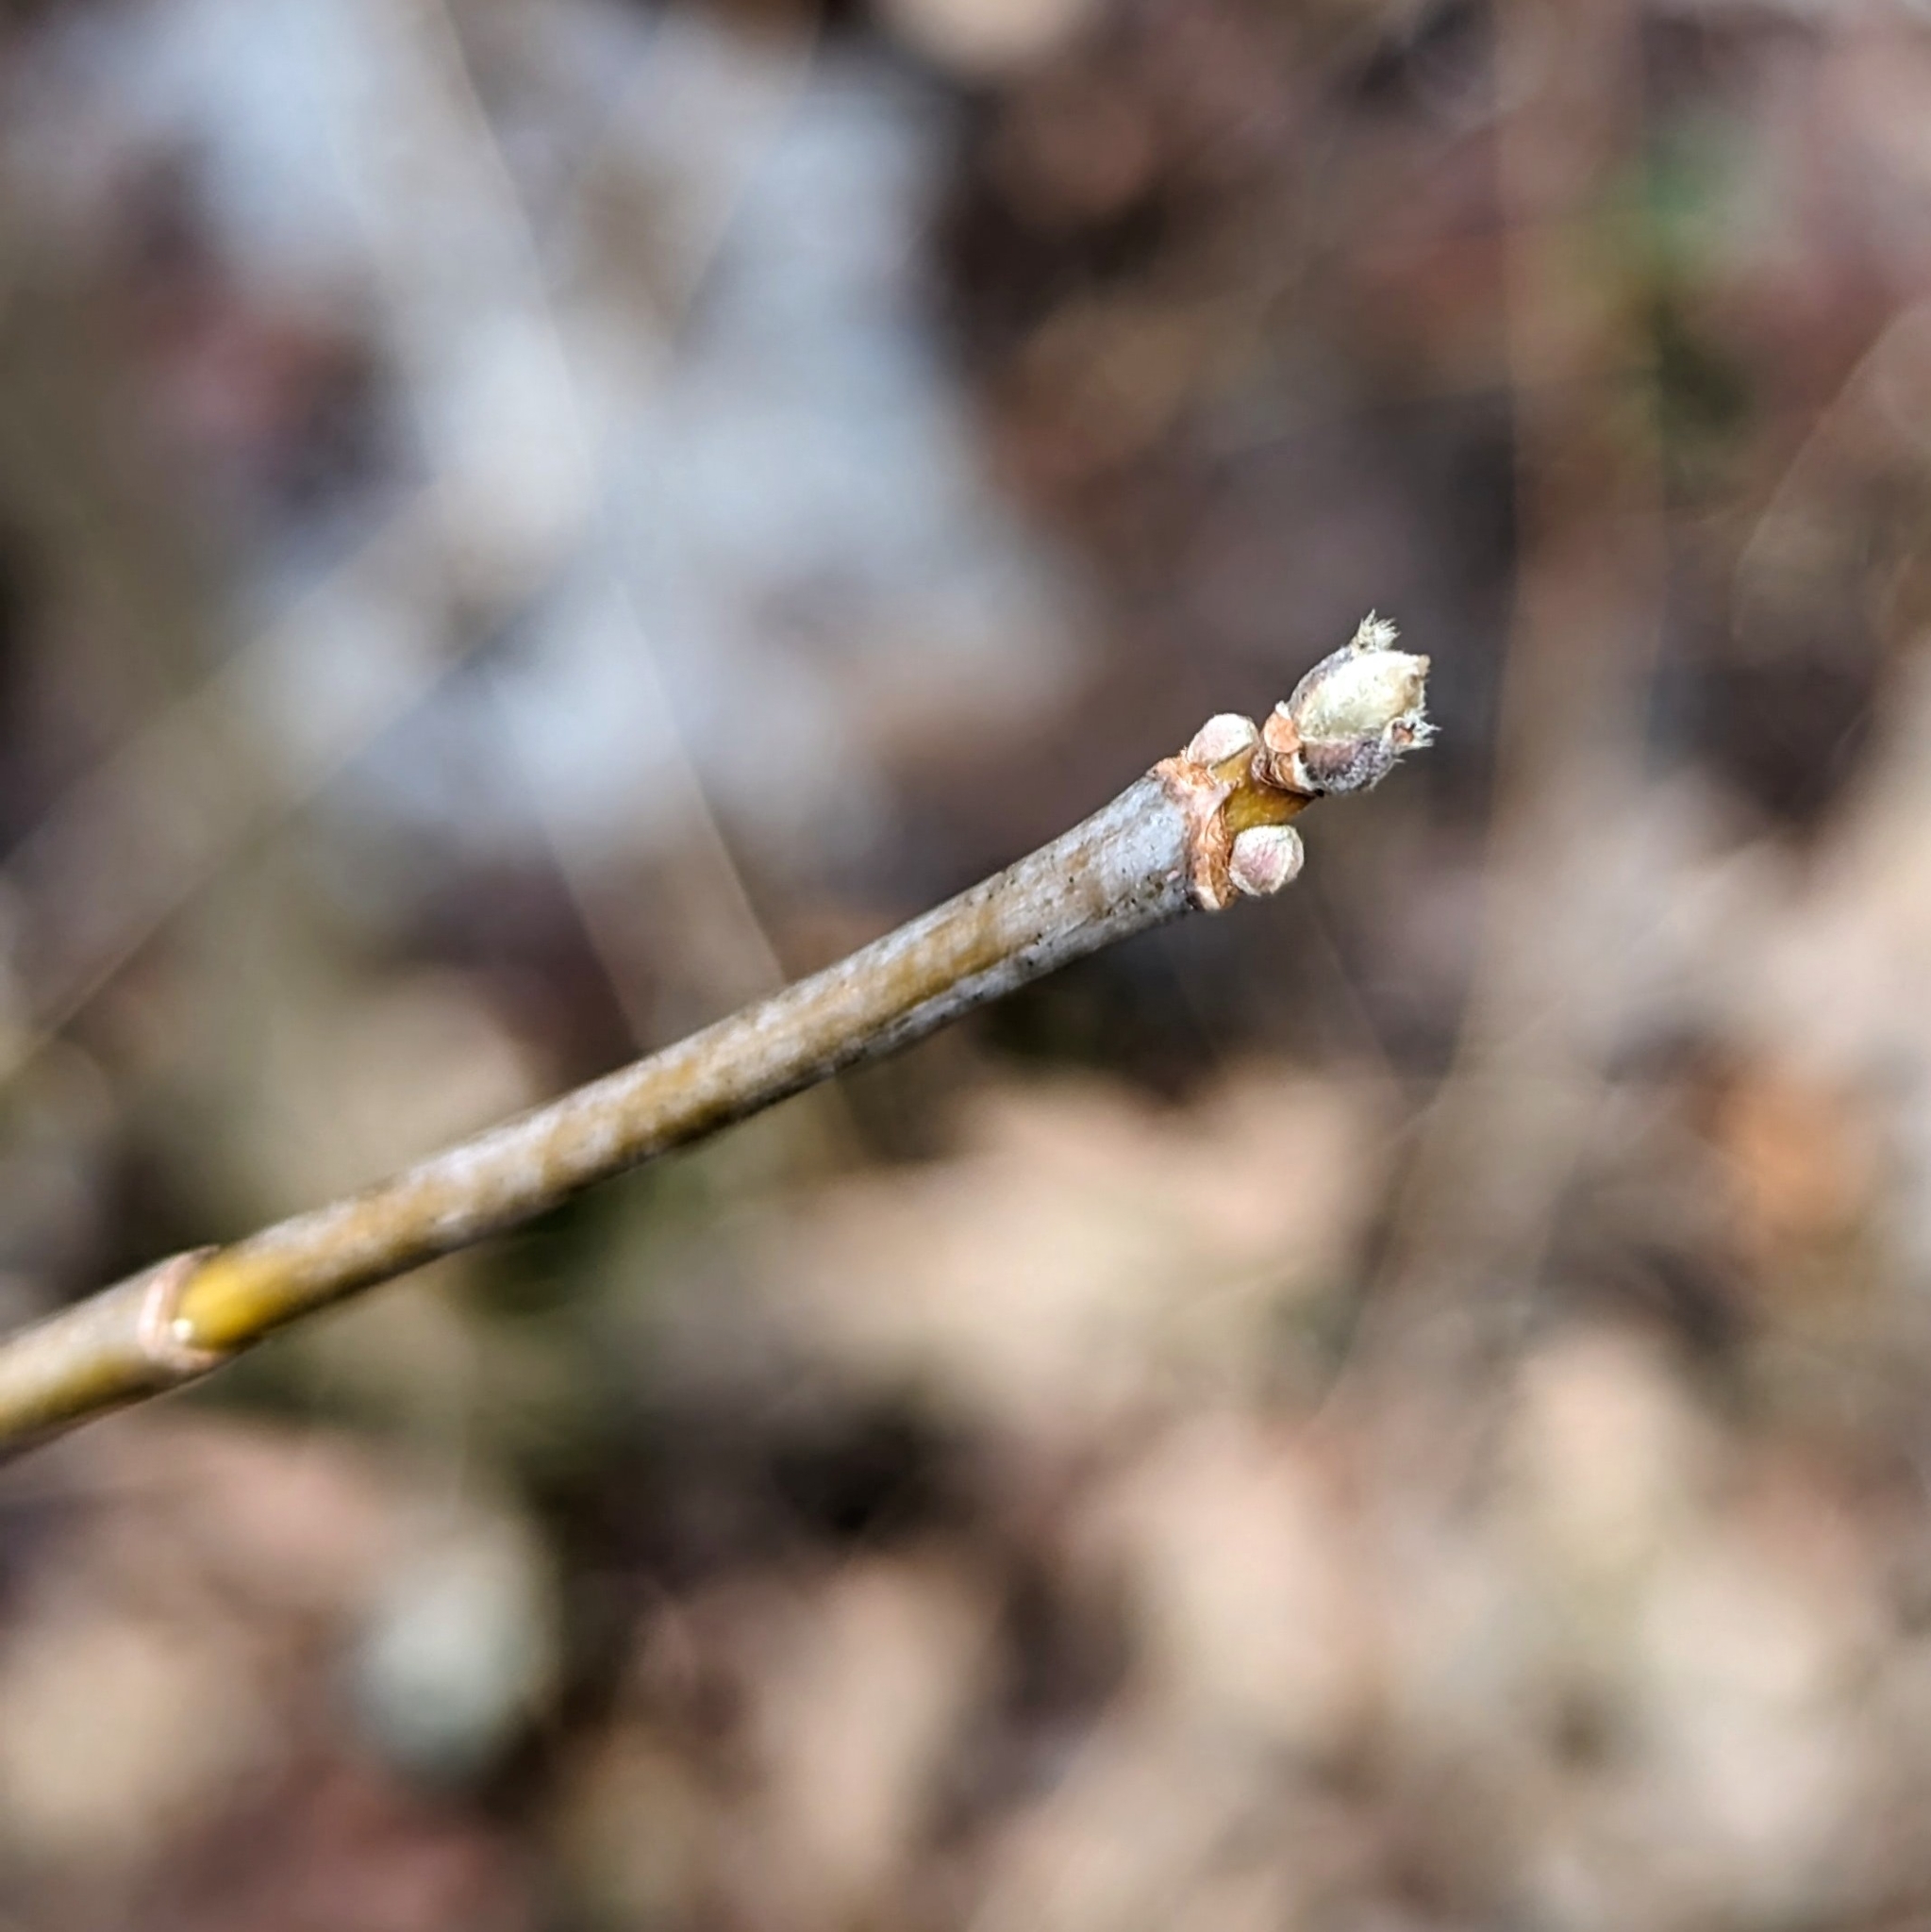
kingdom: Plantae
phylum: Tracheophyta
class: Magnoliopsida
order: Sapindales
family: Sapindaceae
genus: Acer
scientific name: Acer negundo
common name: Ashleaf maple
